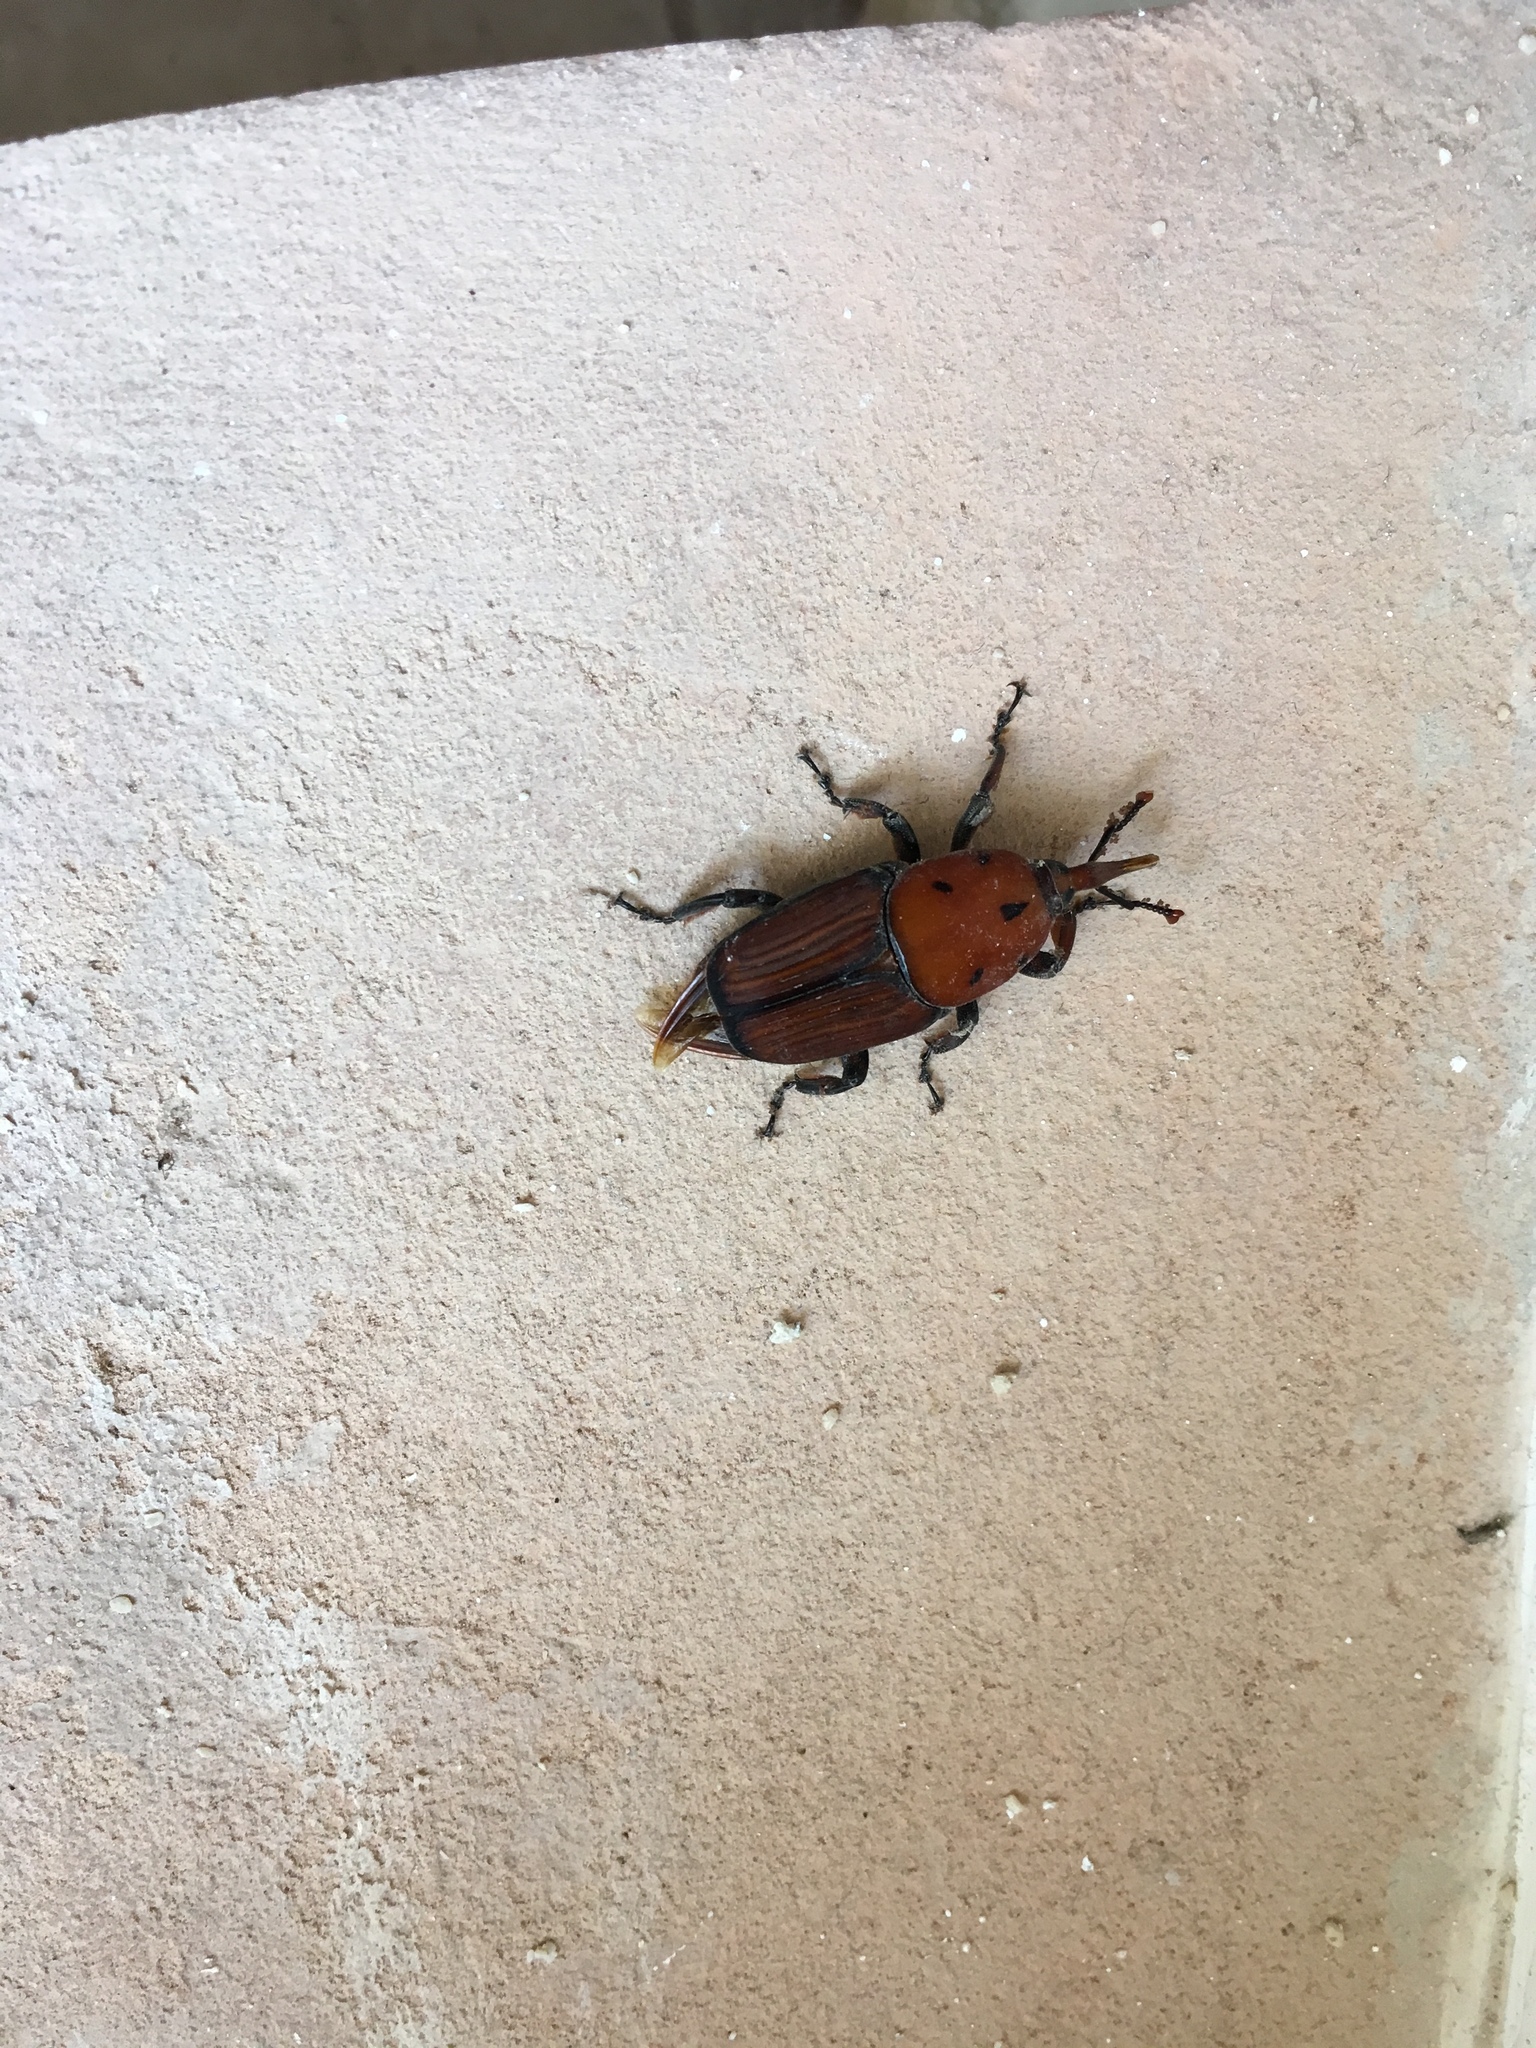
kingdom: Animalia
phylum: Arthropoda
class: Insecta
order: Coleoptera
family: Dryophthoridae
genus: Rhynchophorus
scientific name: Rhynchophorus ferrugineus
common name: Red palm weevil
